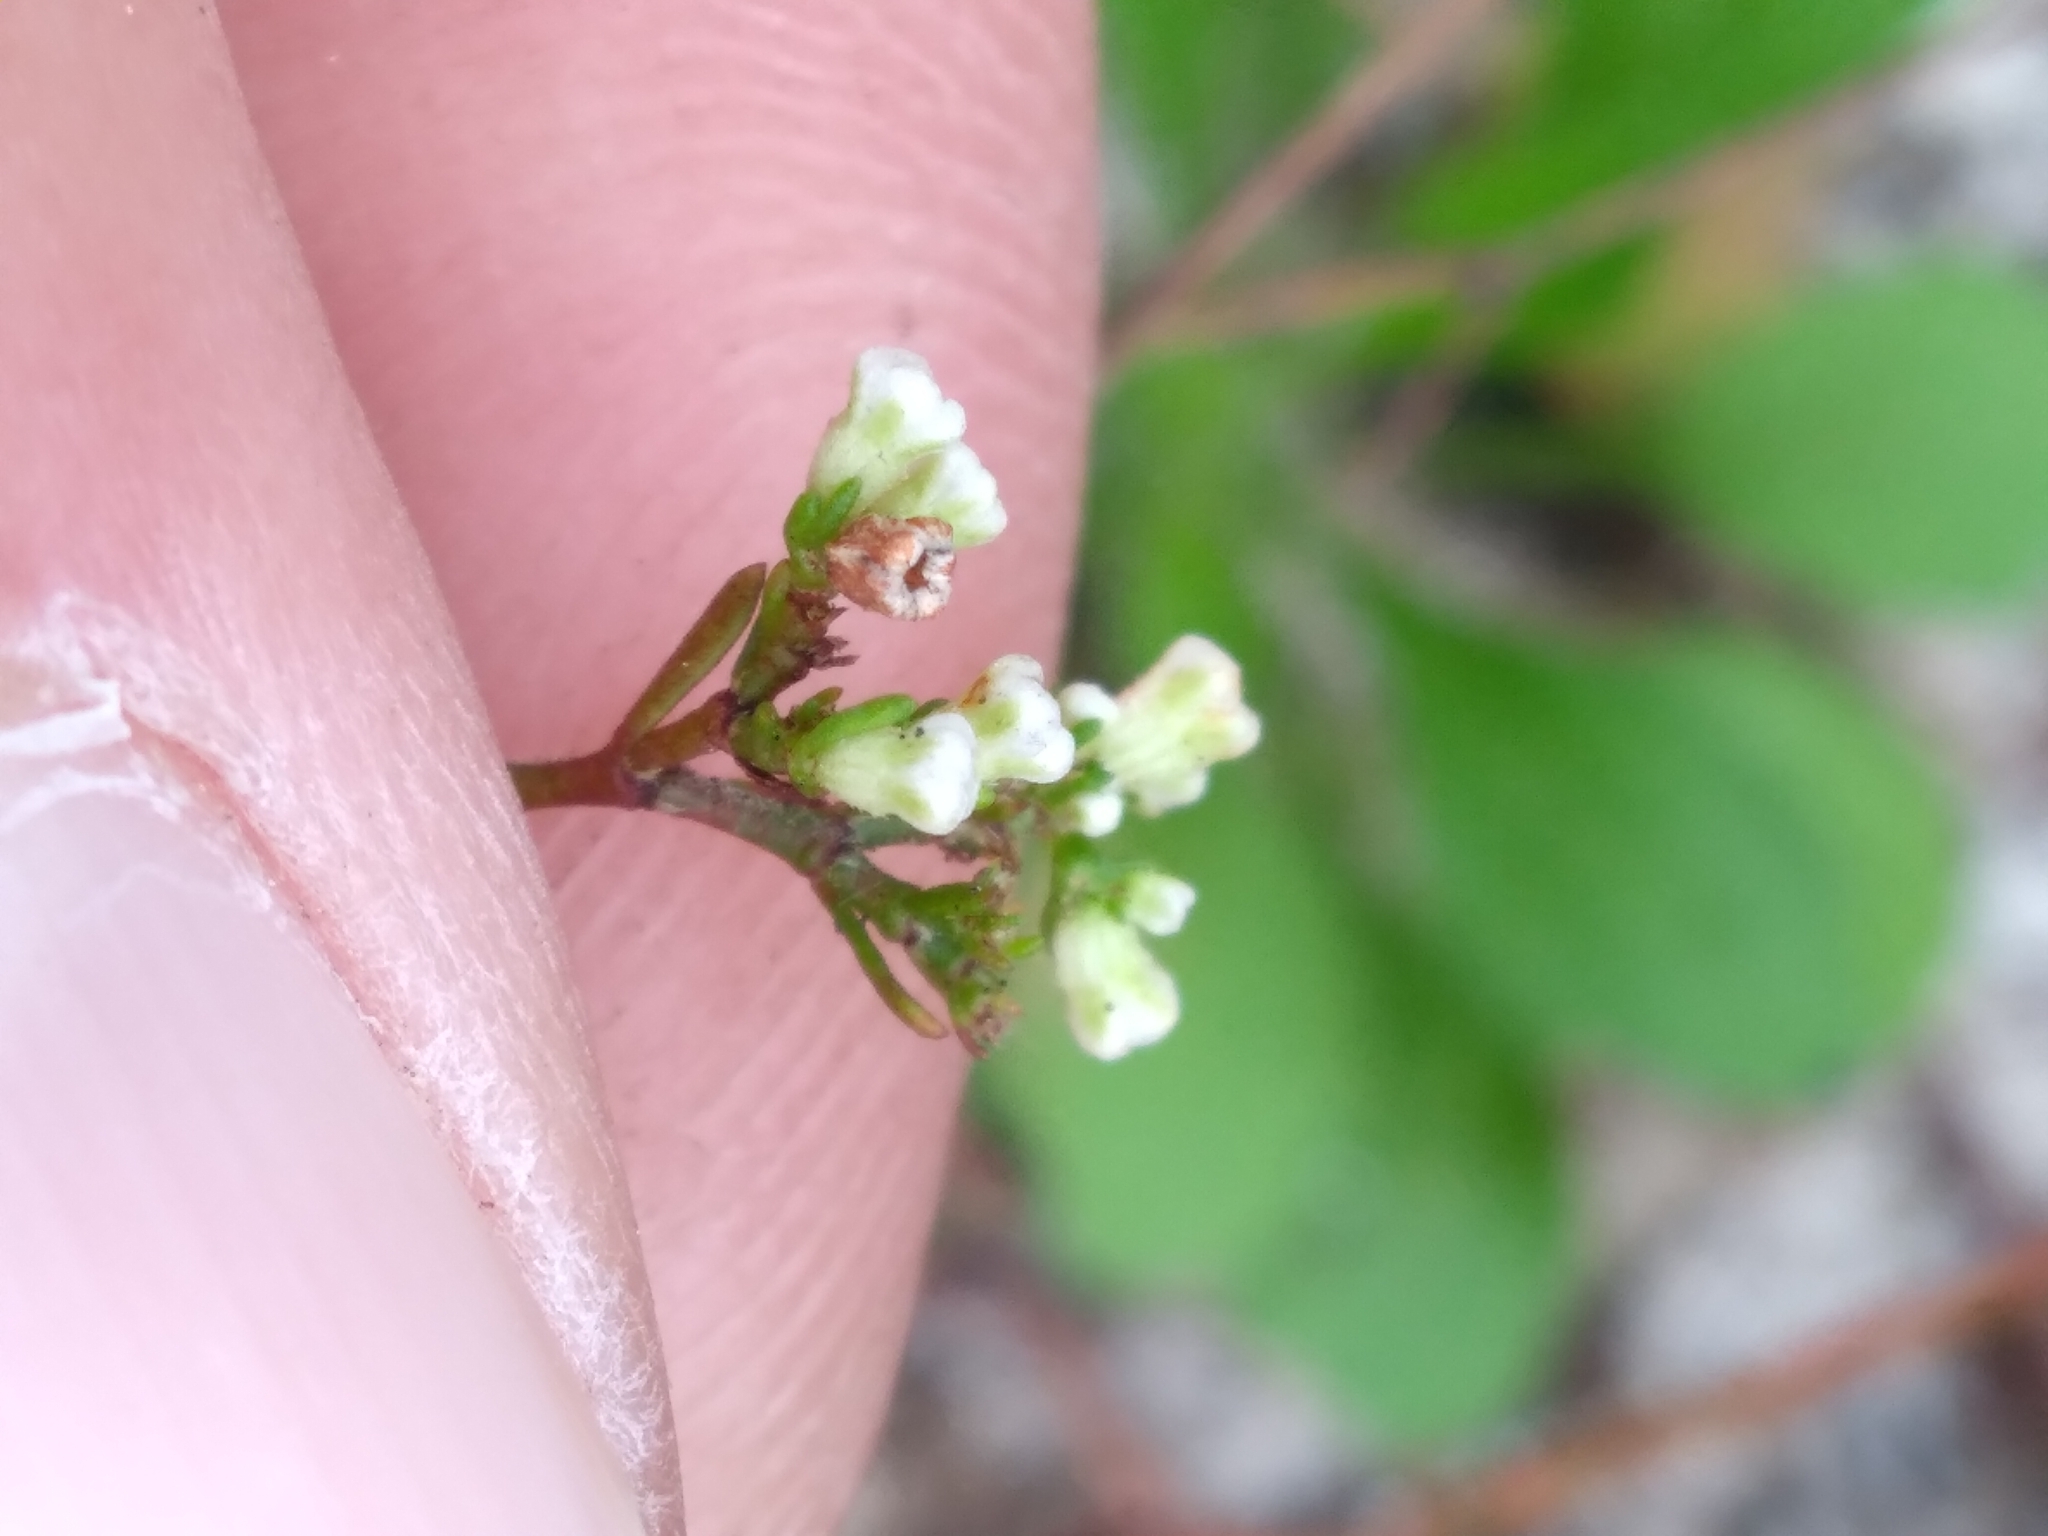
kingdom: Plantae
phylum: Tracheophyta
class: Magnoliopsida
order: Caryophyllales
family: Caryophyllaceae
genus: Paronychia
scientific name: Paronychia americana
